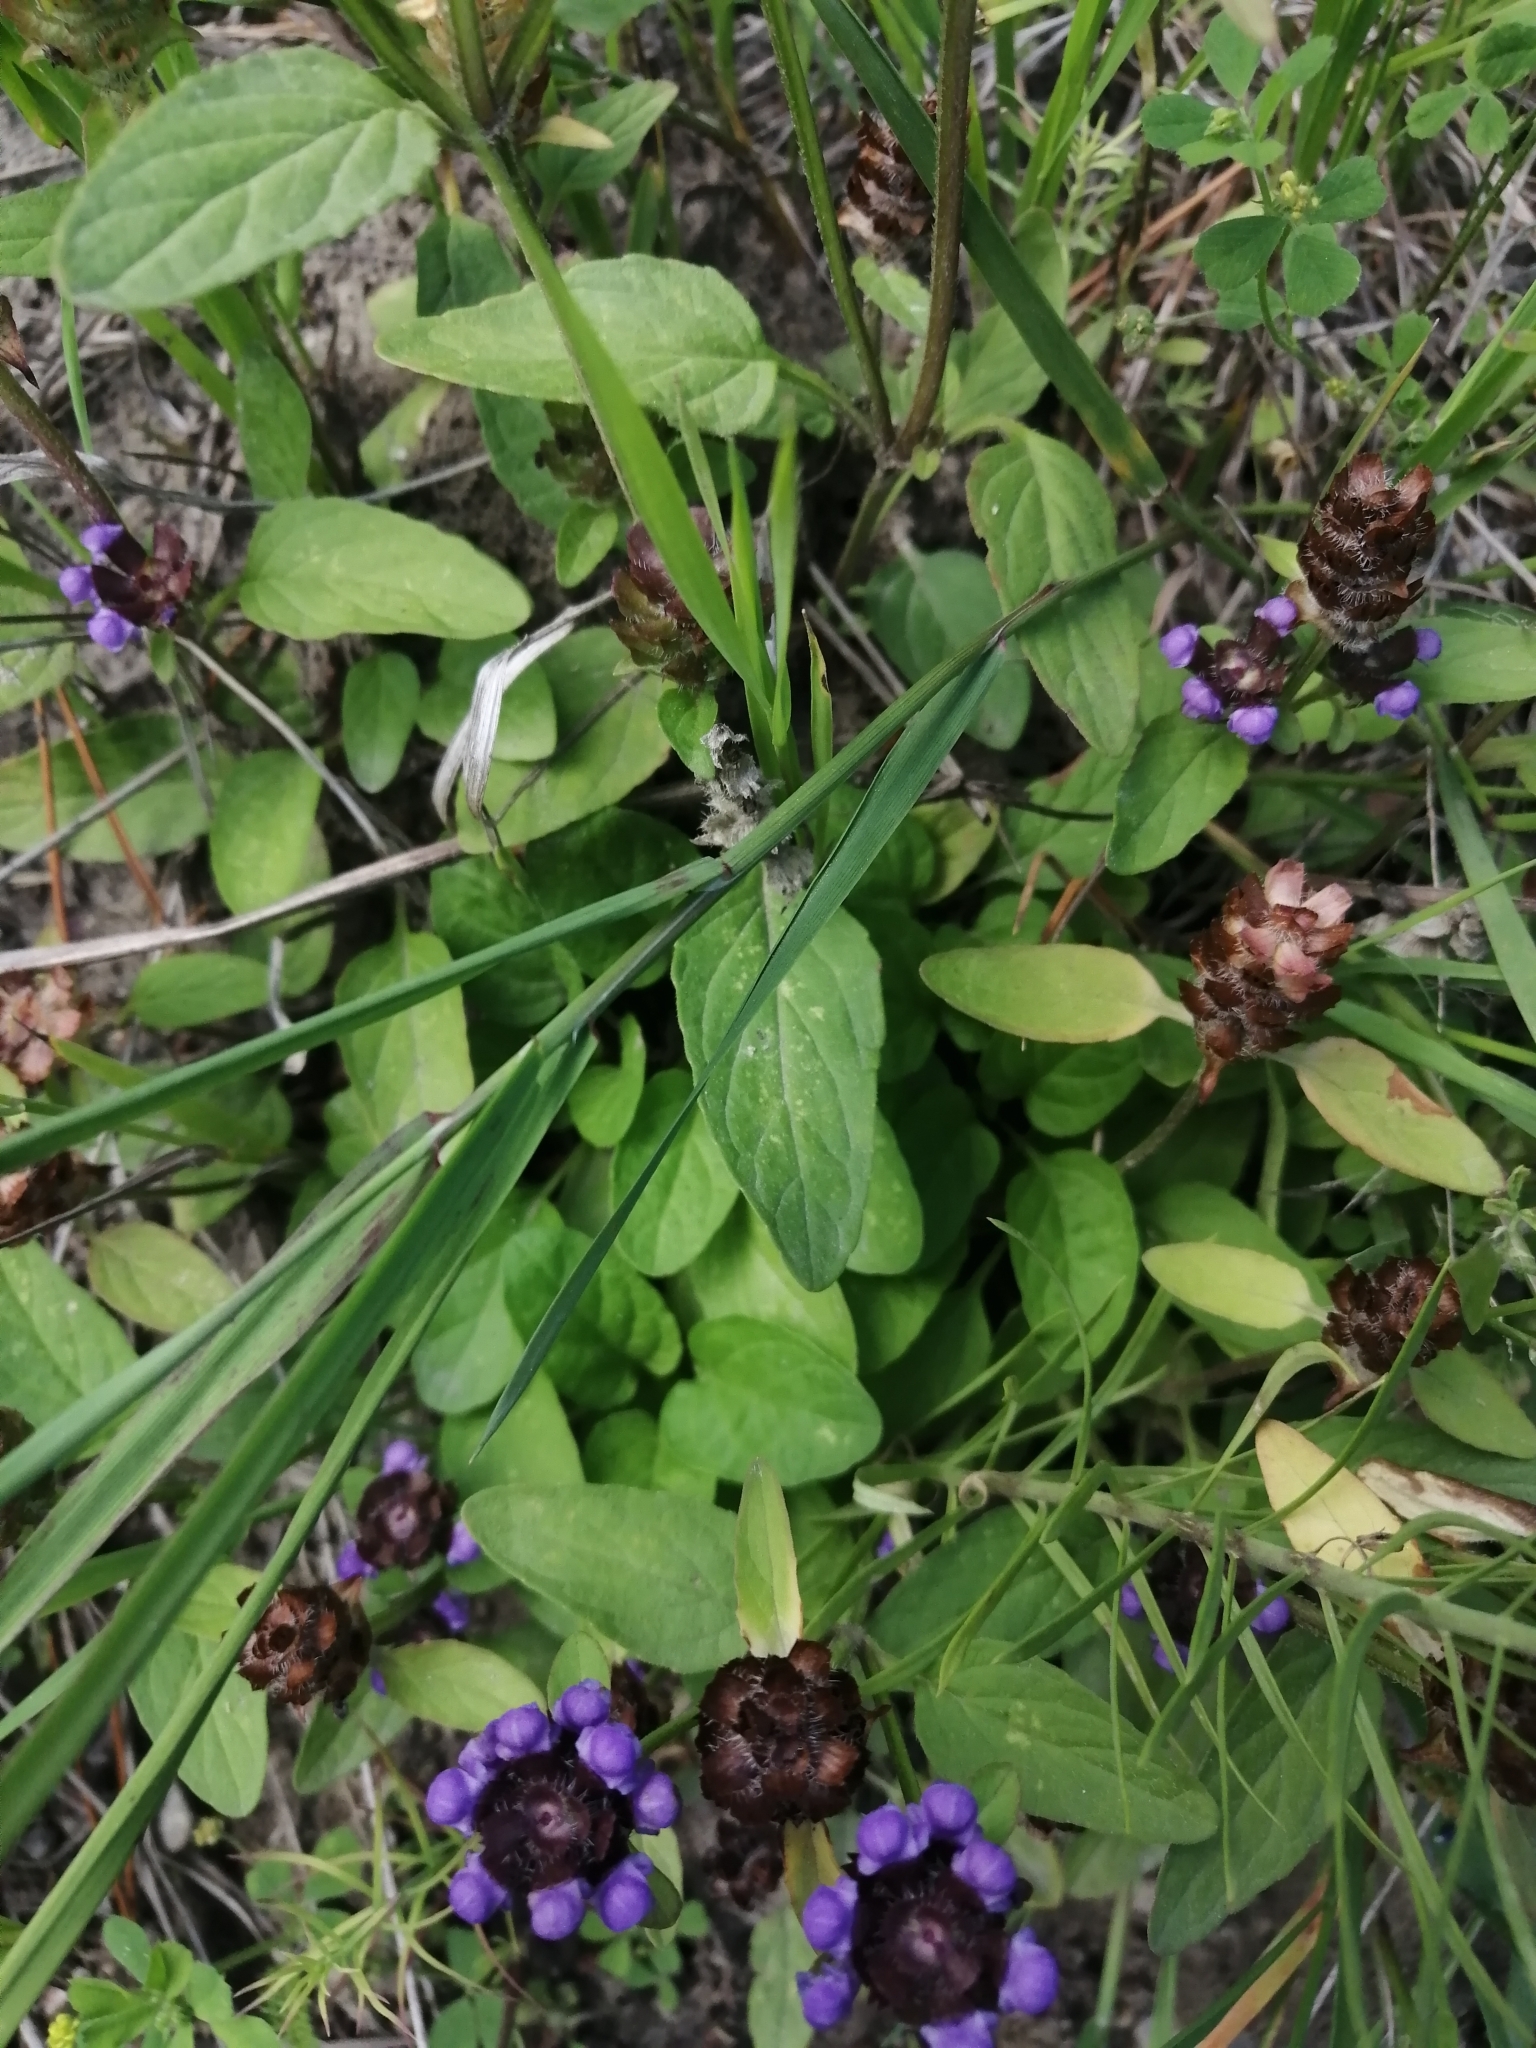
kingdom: Plantae
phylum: Tracheophyta
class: Magnoliopsida
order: Lamiales
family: Lamiaceae
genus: Prunella
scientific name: Prunella vulgaris
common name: Heal-all
